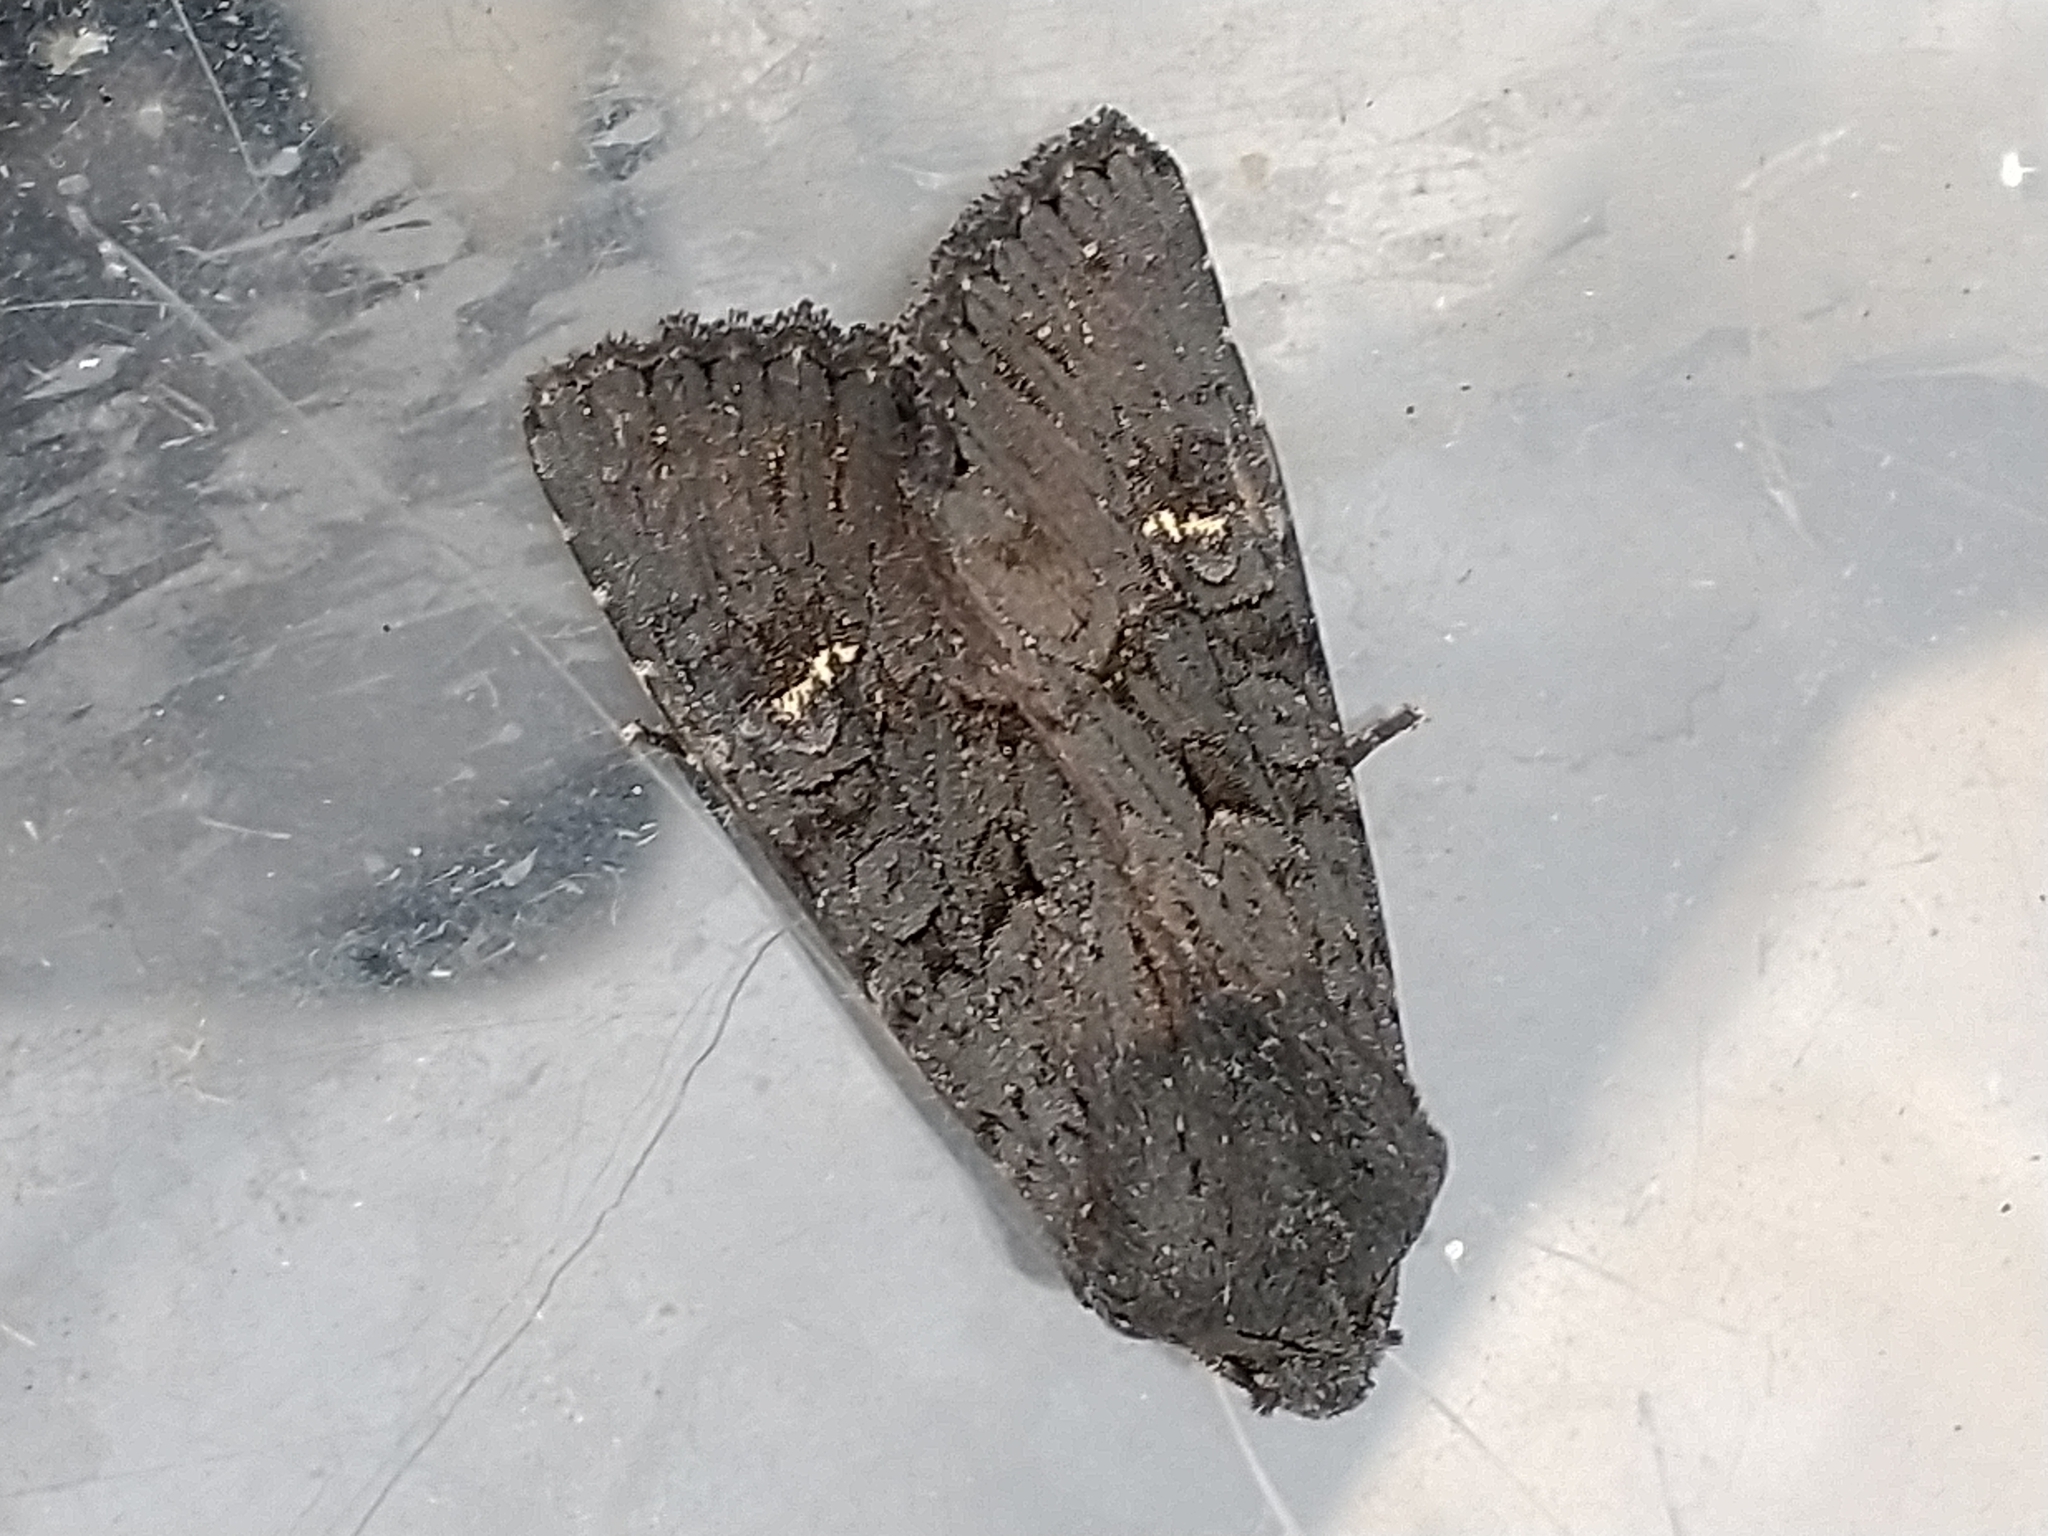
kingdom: Animalia
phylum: Arthropoda
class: Insecta
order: Lepidoptera
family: Noctuidae
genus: Aporophyla
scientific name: Aporophyla nigra
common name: Black rustic
